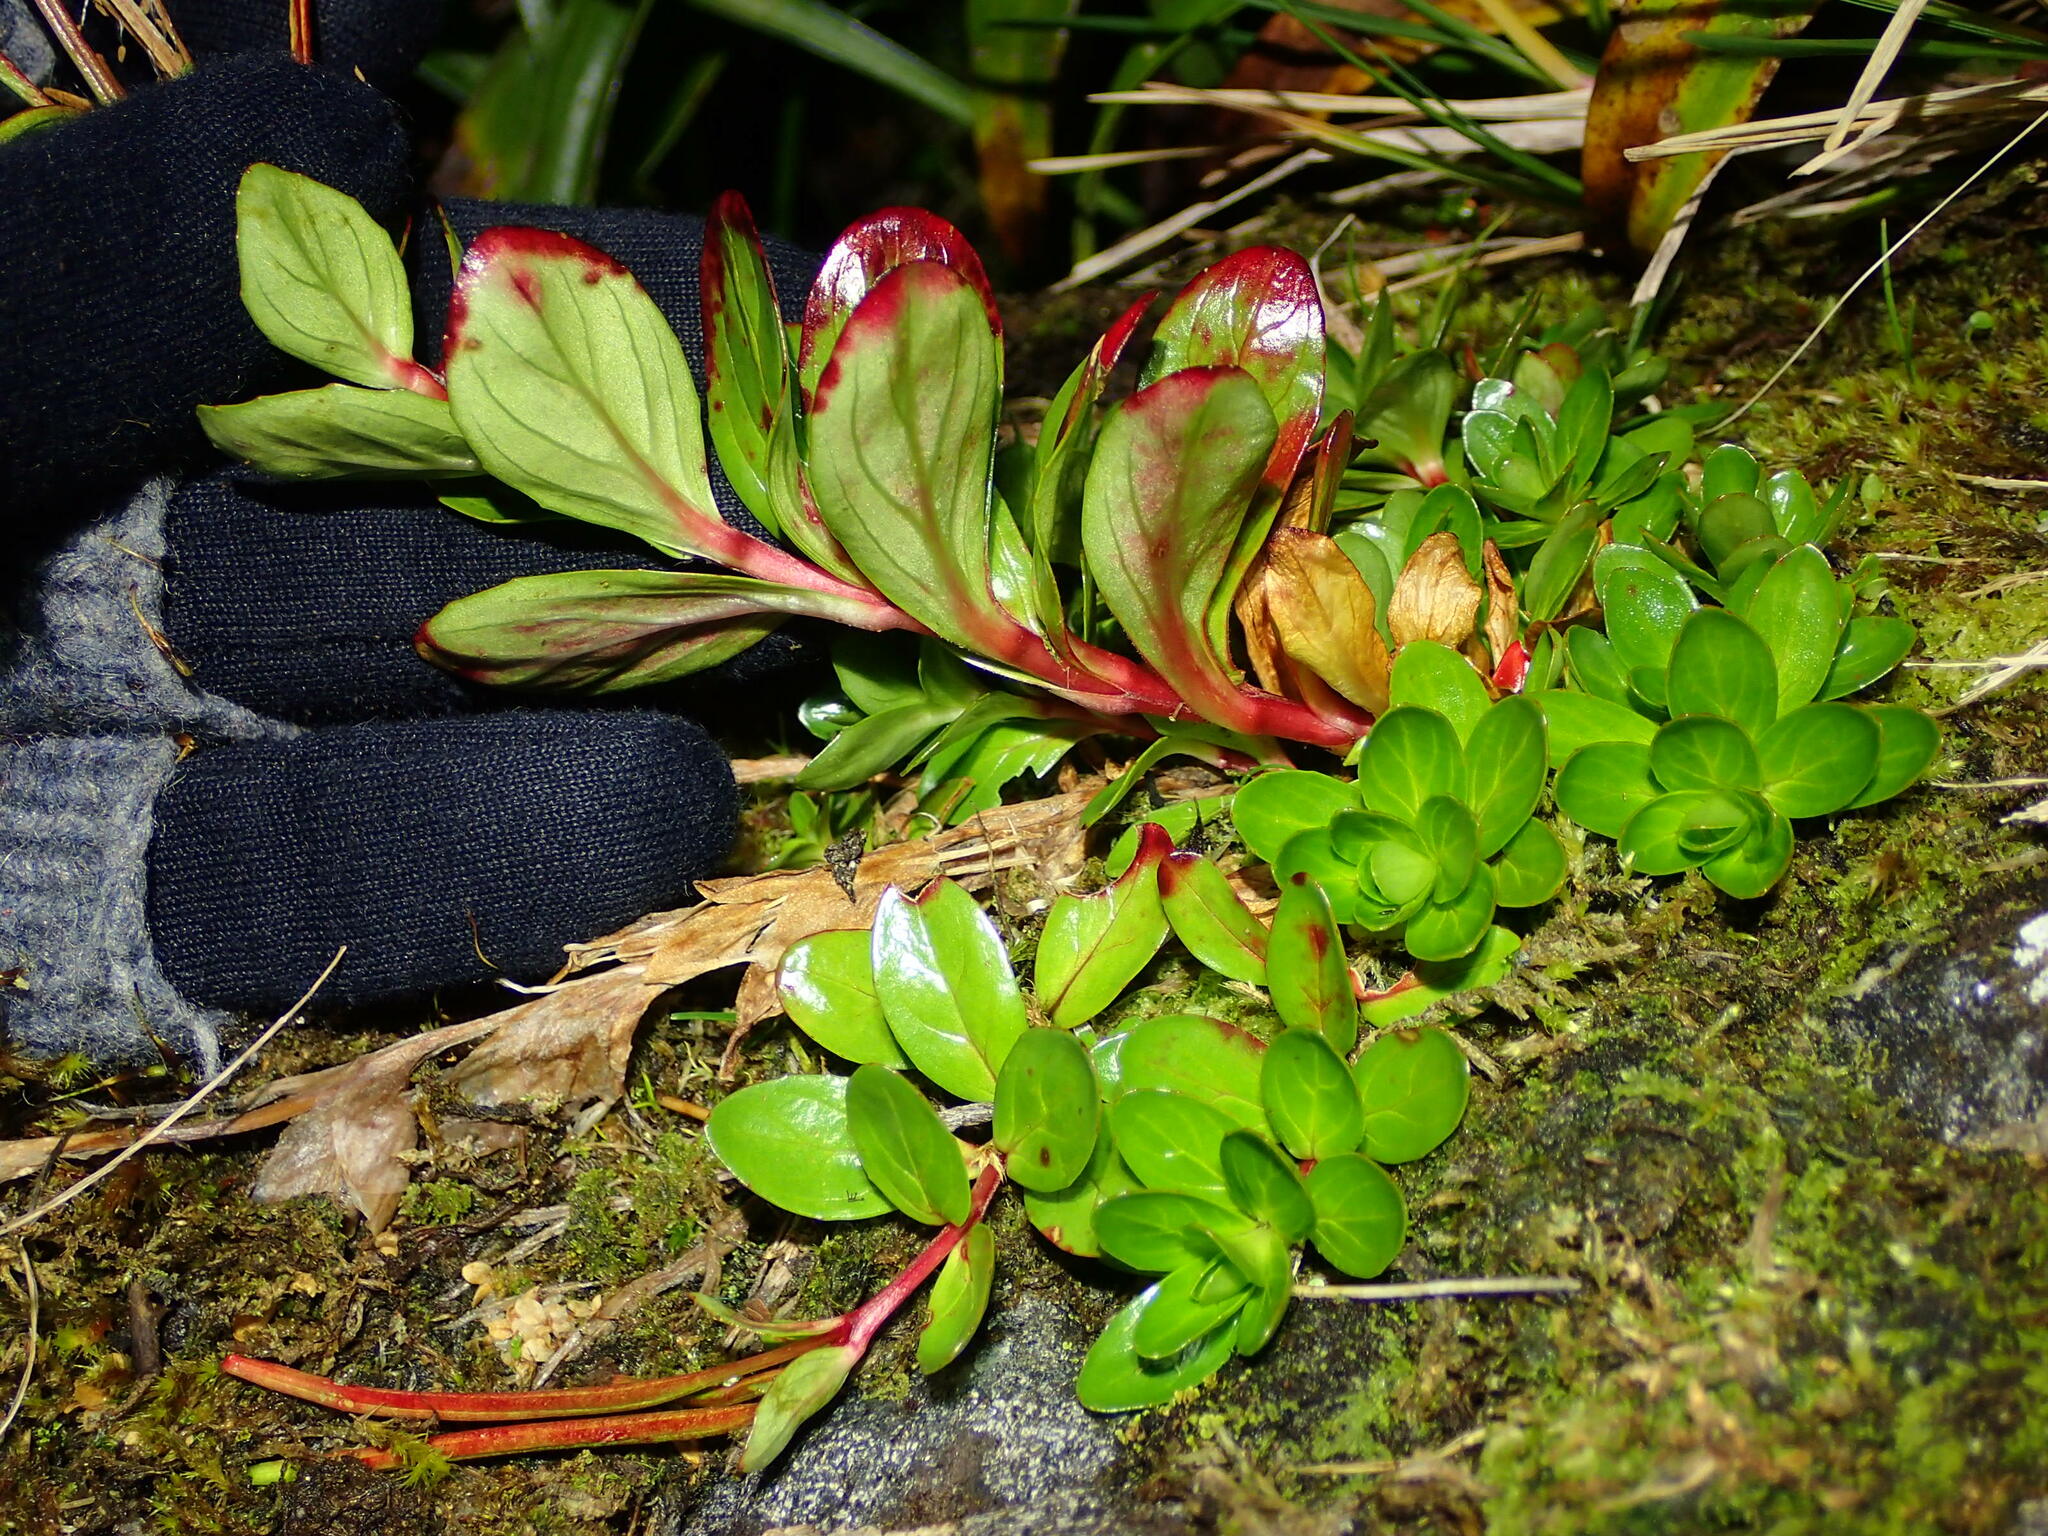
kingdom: Plantae
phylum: Tracheophyta
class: Magnoliopsida
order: Myrtales
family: Onagraceae
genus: Epilobium
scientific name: Epilobium matthewsii
